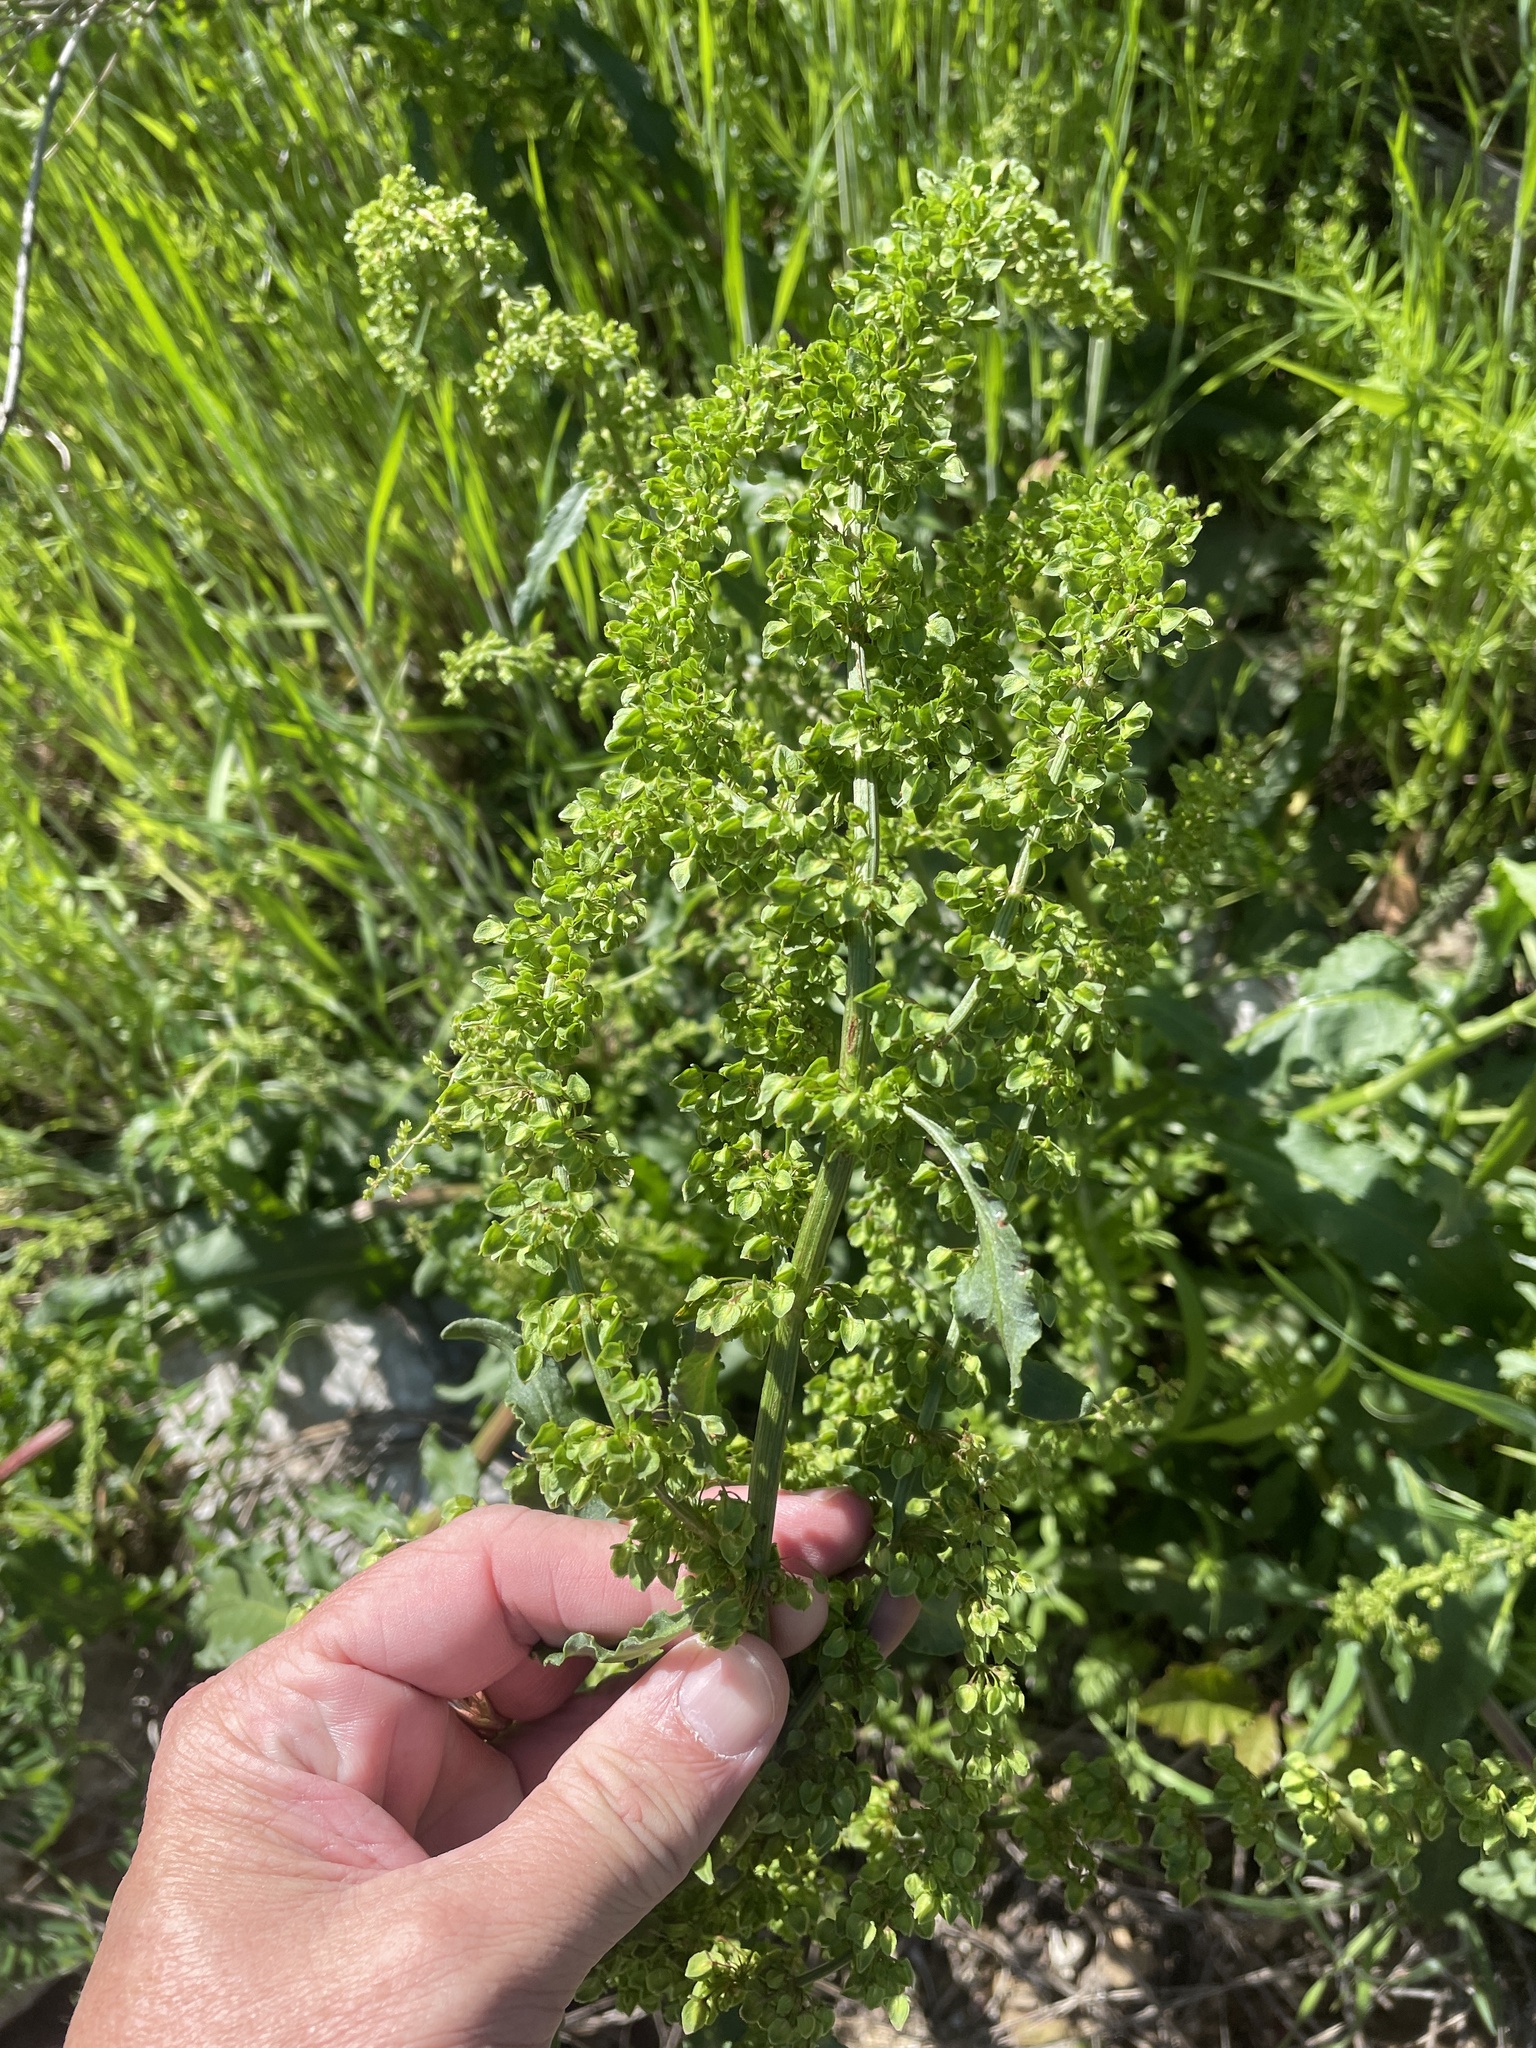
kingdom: Plantae
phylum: Tracheophyta
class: Magnoliopsida
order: Caryophyllales
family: Polygonaceae
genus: Rumex
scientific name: Rumex crispus
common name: Curled dock
